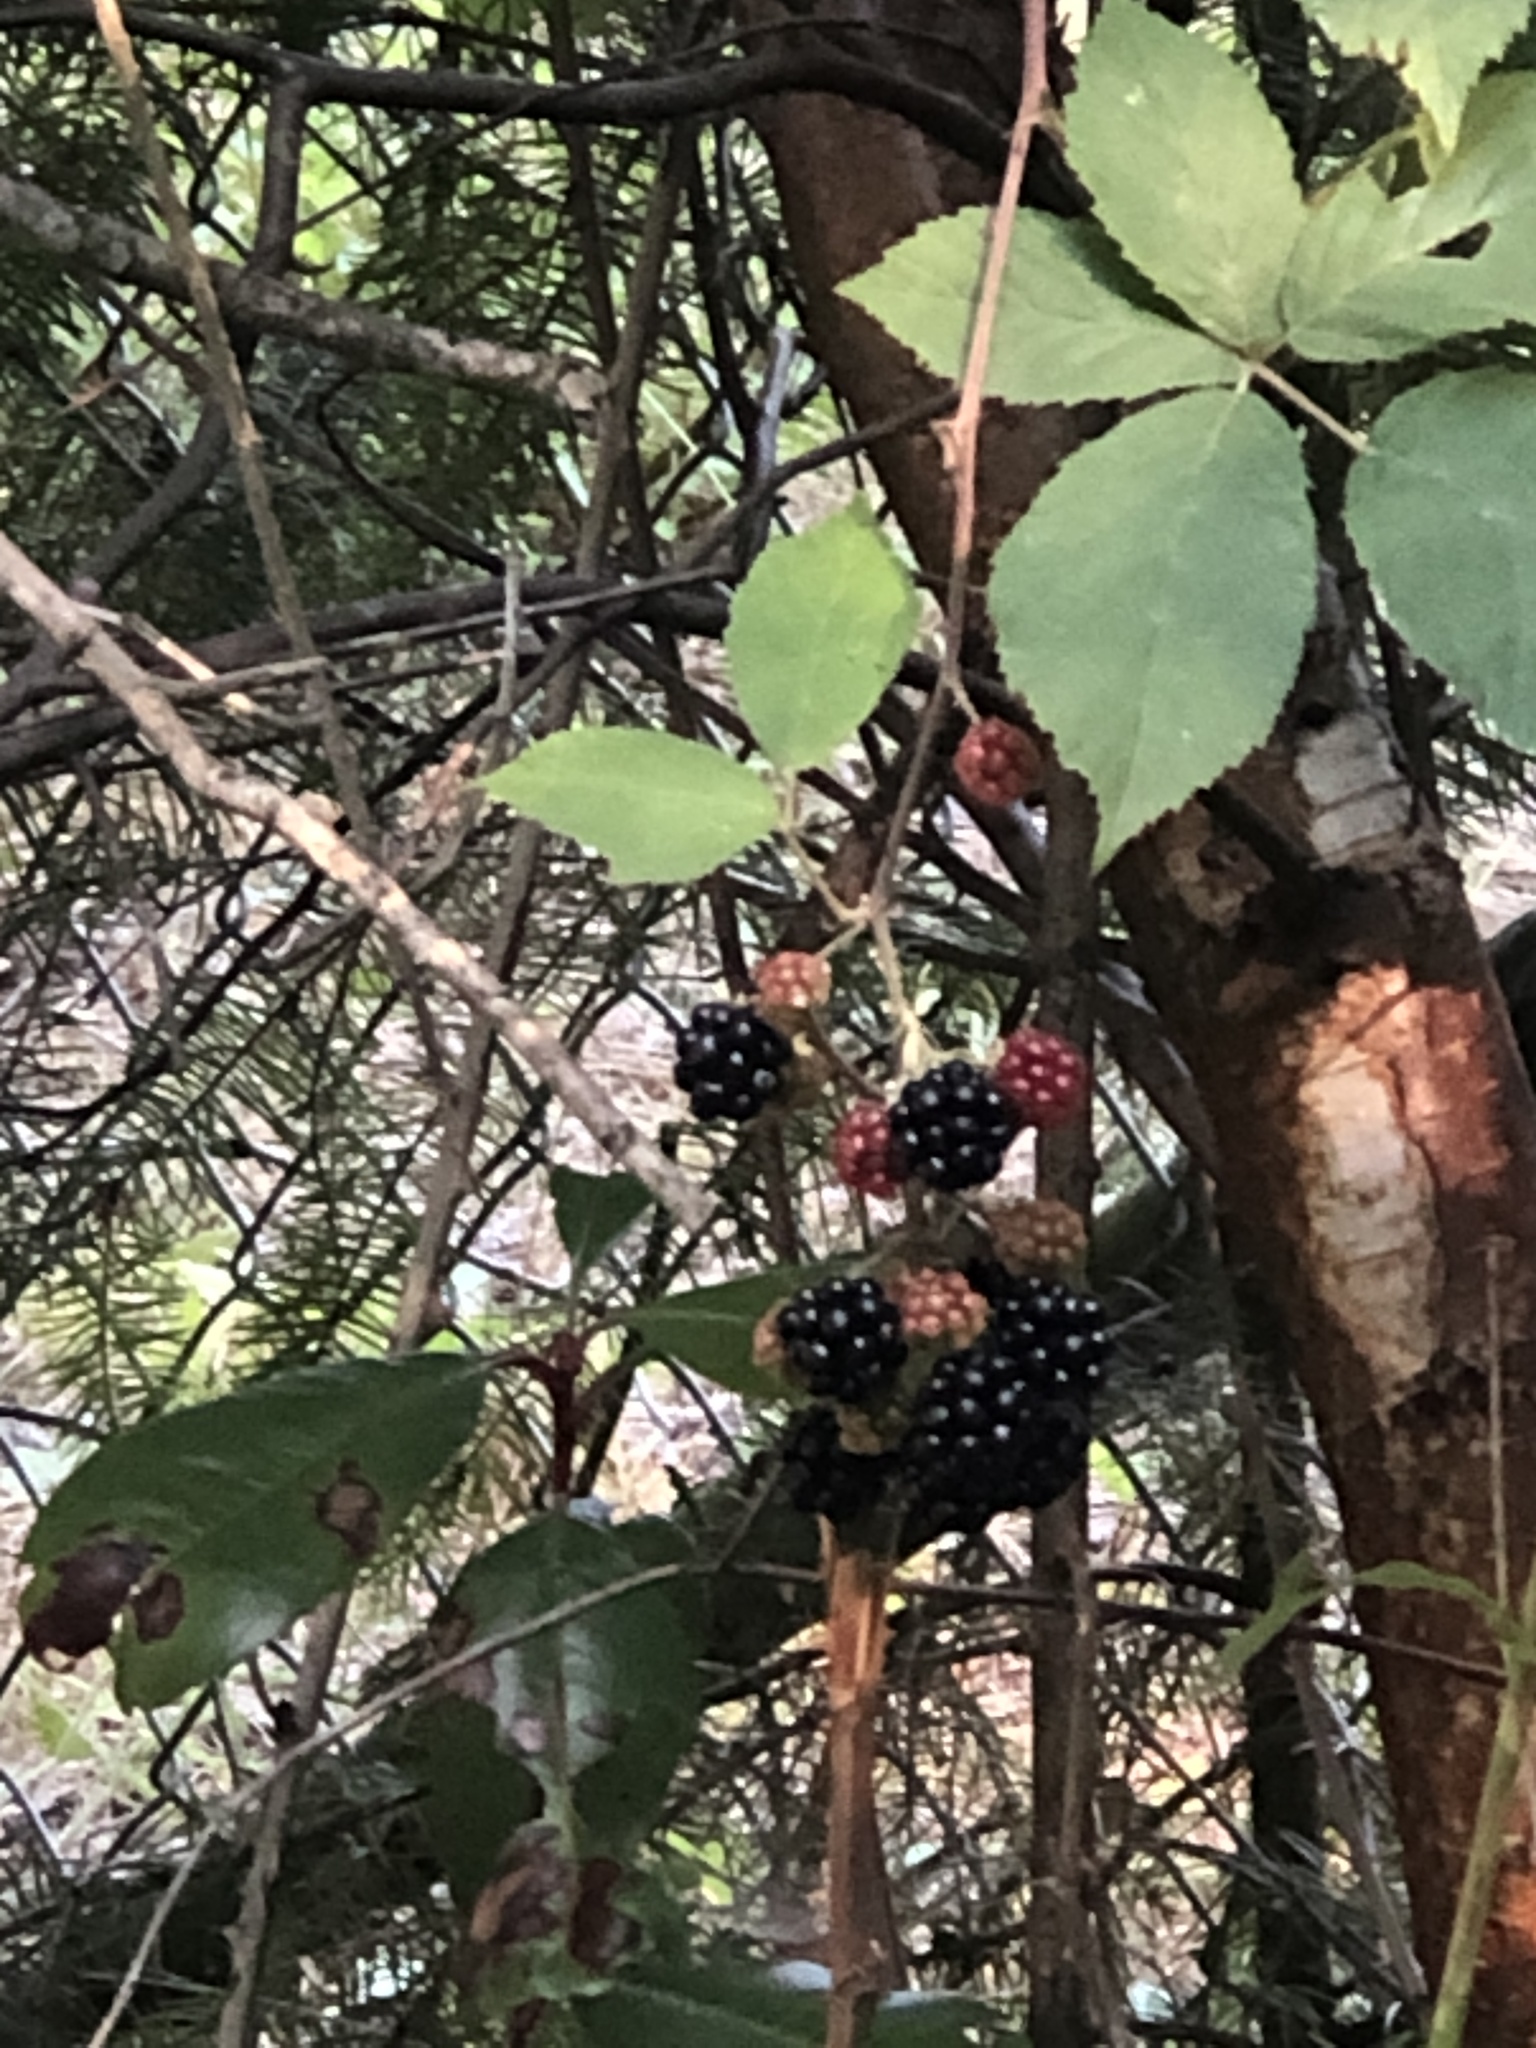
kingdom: Plantae
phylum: Tracheophyta
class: Magnoliopsida
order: Rosales
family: Rosaceae
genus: Rubus
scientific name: Rubus armeniacus
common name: Himalayan blackberry
